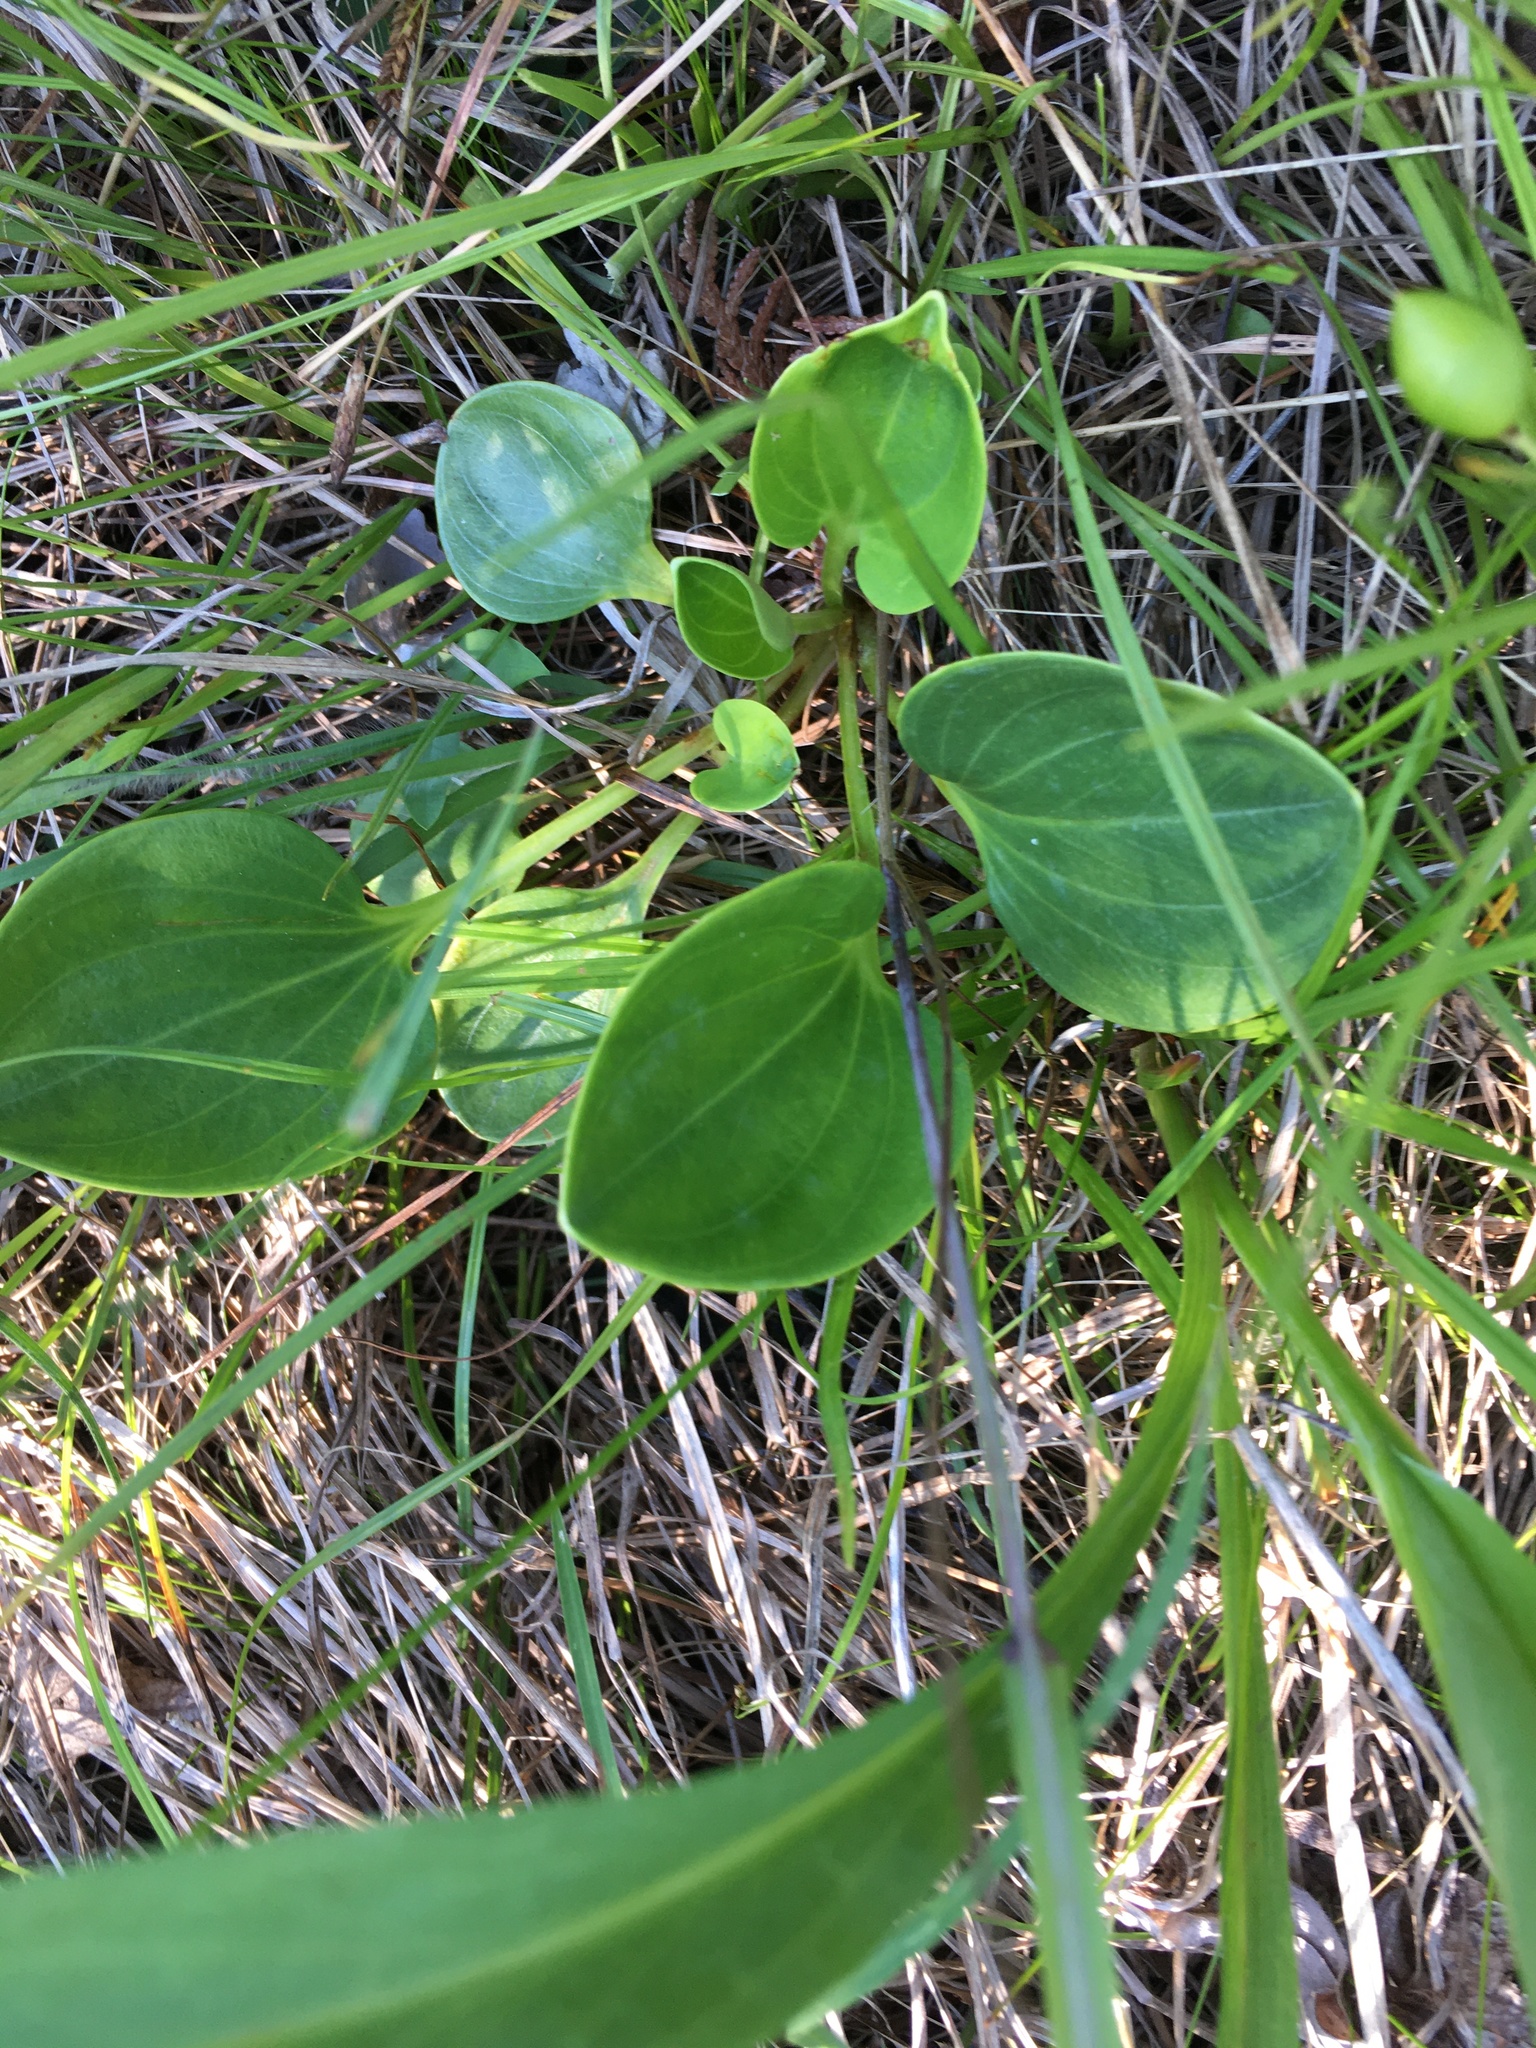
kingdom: Plantae
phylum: Tracheophyta
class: Magnoliopsida
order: Celastrales
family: Parnassiaceae
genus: Parnassia
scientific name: Parnassia glauca
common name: American grass-of-parnassus
